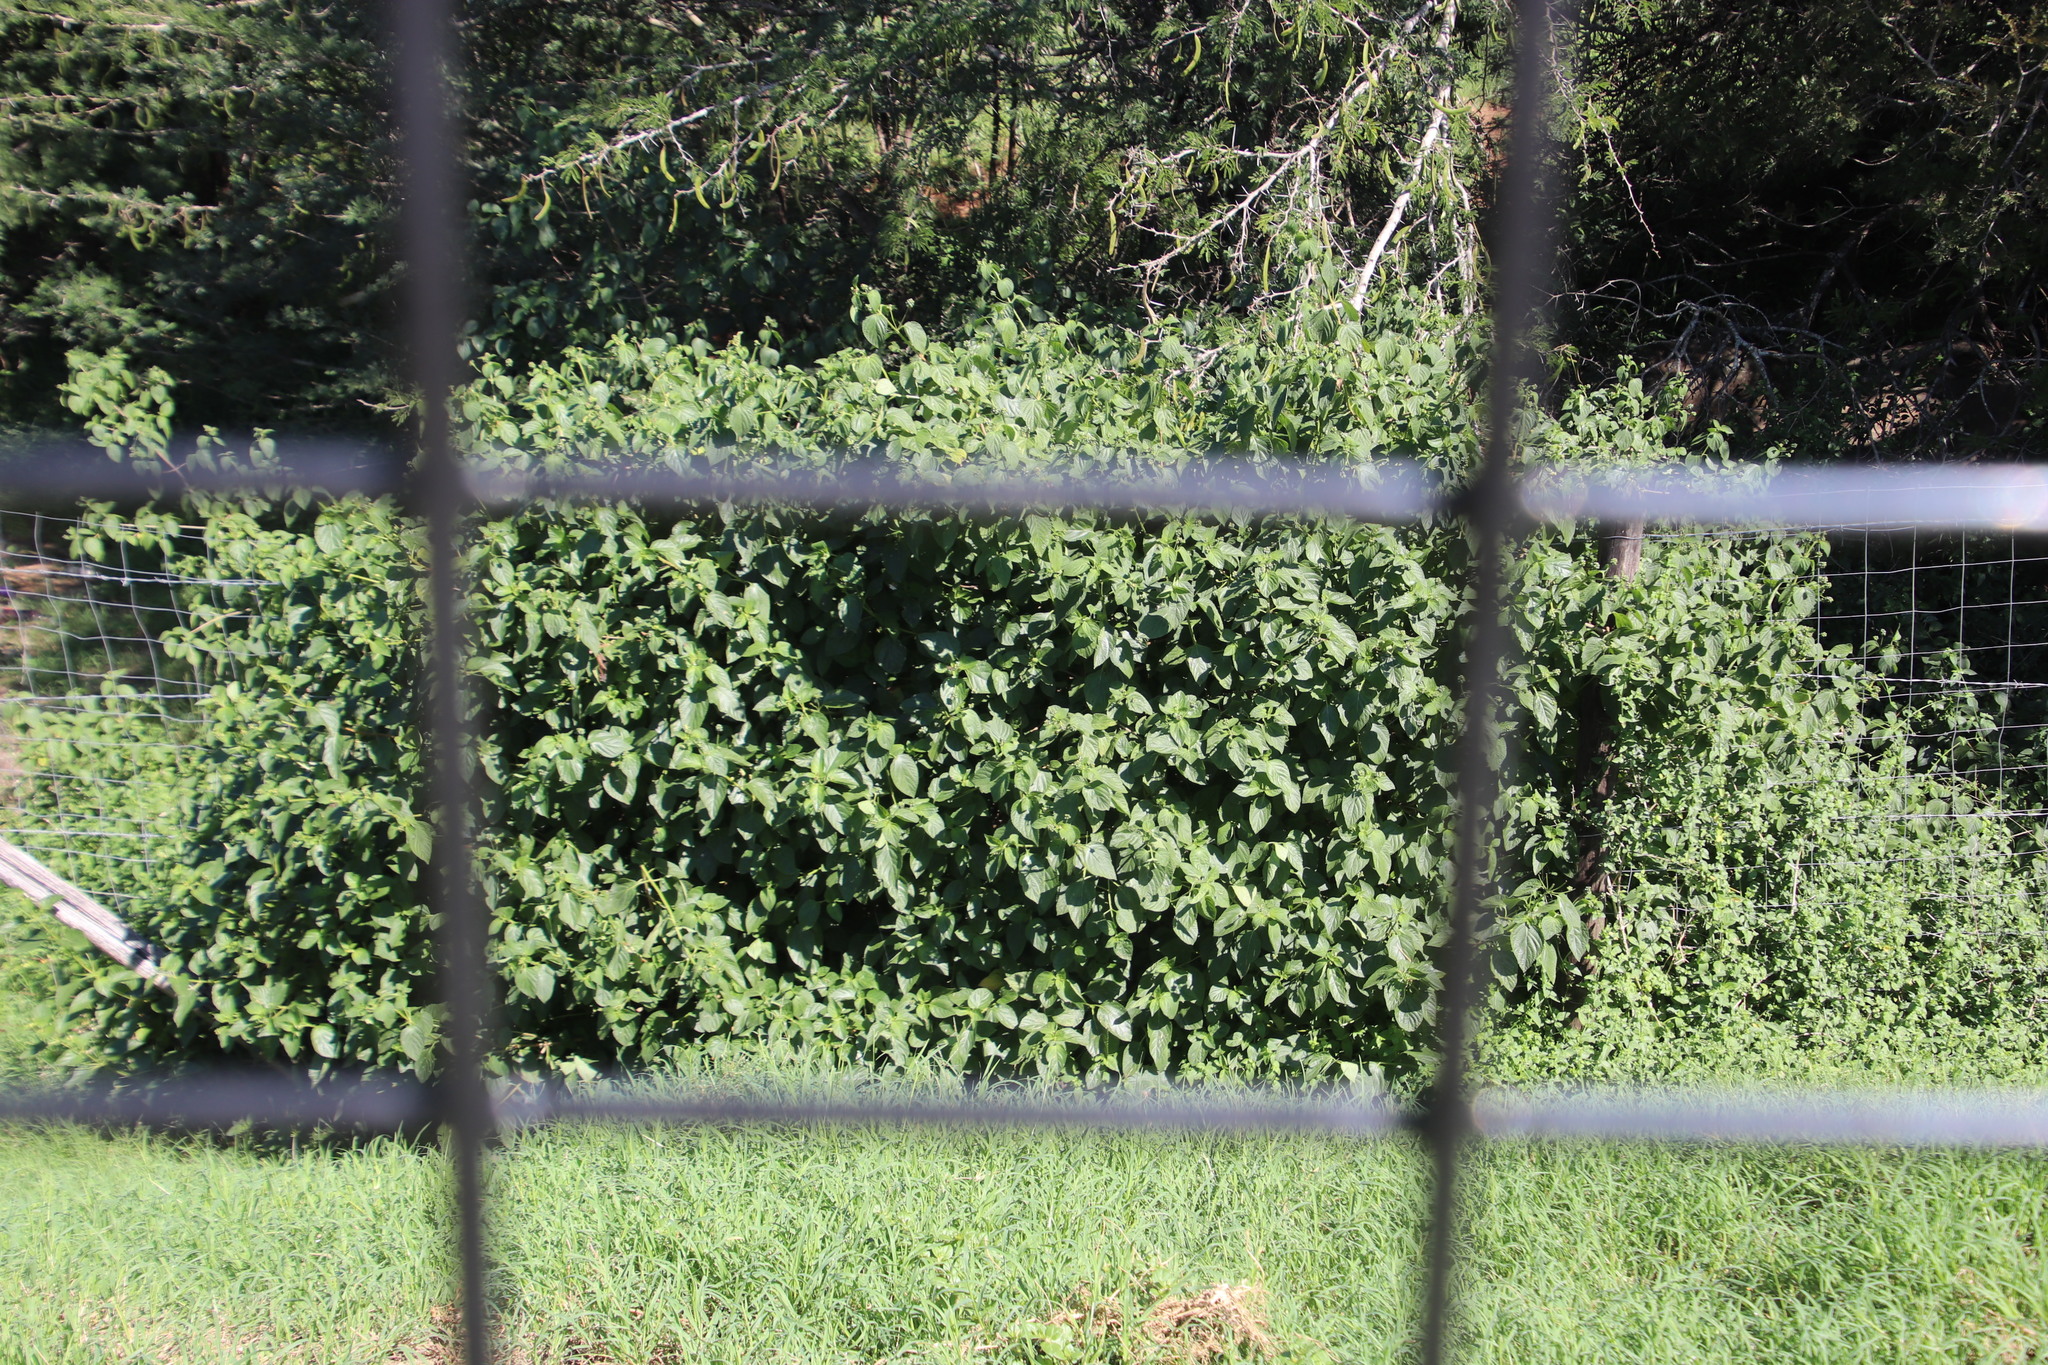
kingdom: Plantae
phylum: Tracheophyta
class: Magnoliopsida
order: Lamiales
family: Verbenaceae
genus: Lantana
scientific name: Lantana camara
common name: Lantana
